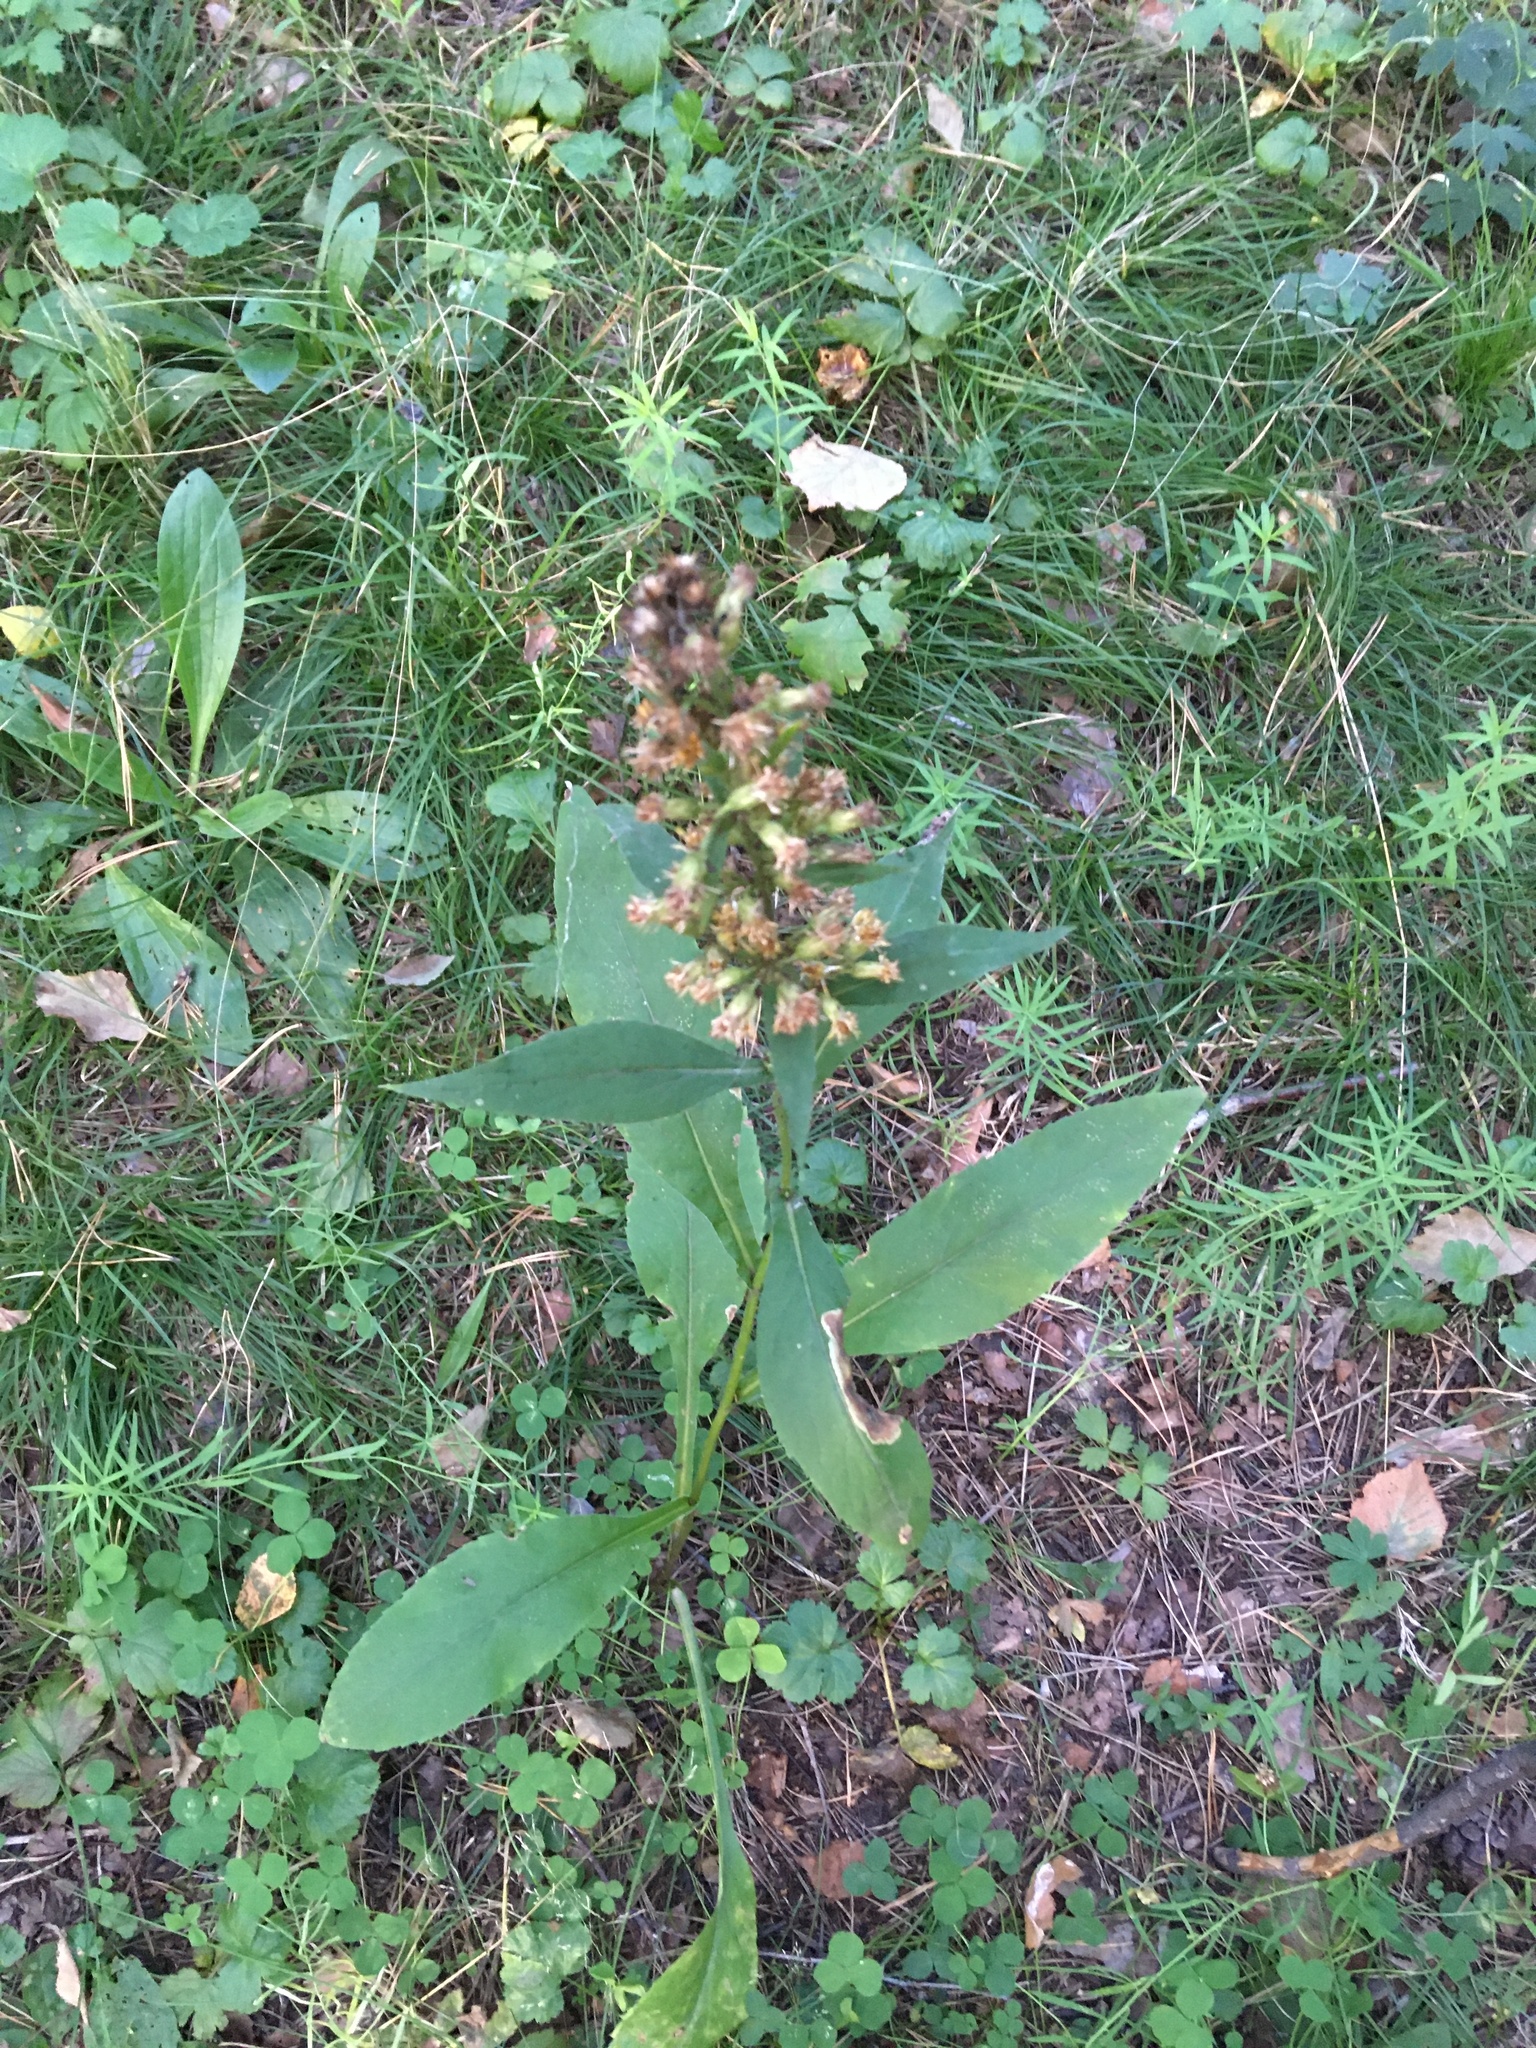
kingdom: Plantae
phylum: Tracheophyta
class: Magnoliopsida
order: Asterales
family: Asteraceae
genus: Solidago
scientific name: Solidago dahurica
